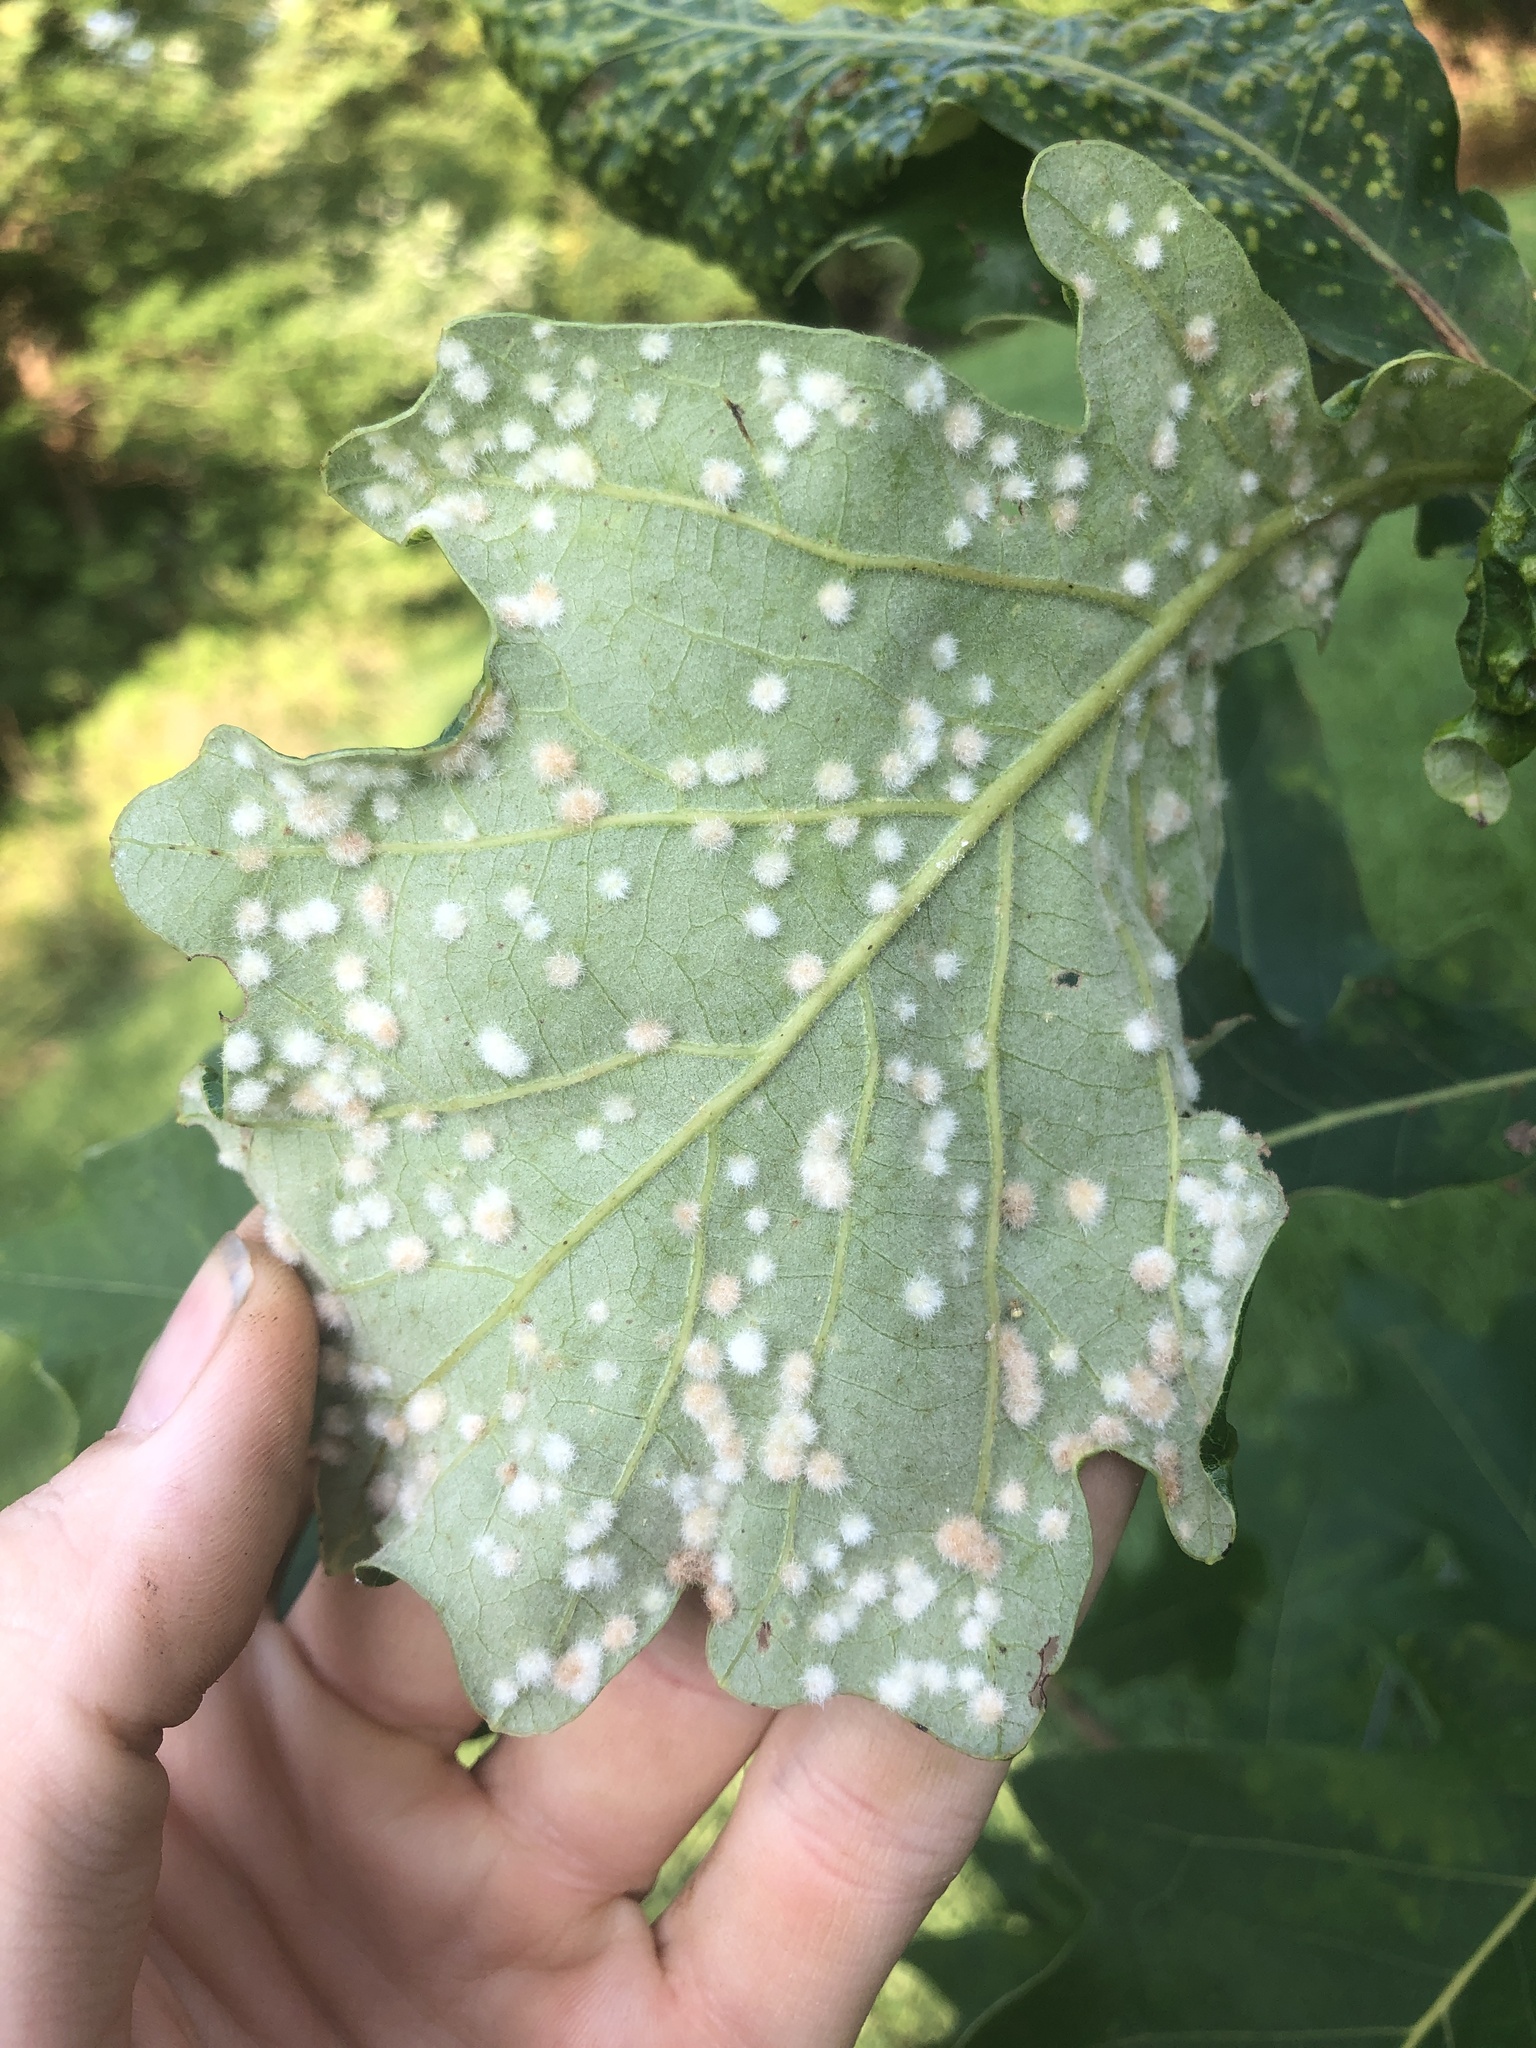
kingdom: Animalia
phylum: Arthropoda
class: Insecta
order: Hymenoptera
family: Cynipidae
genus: Neuroterus
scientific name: Neuroterus quercusverrucarum
